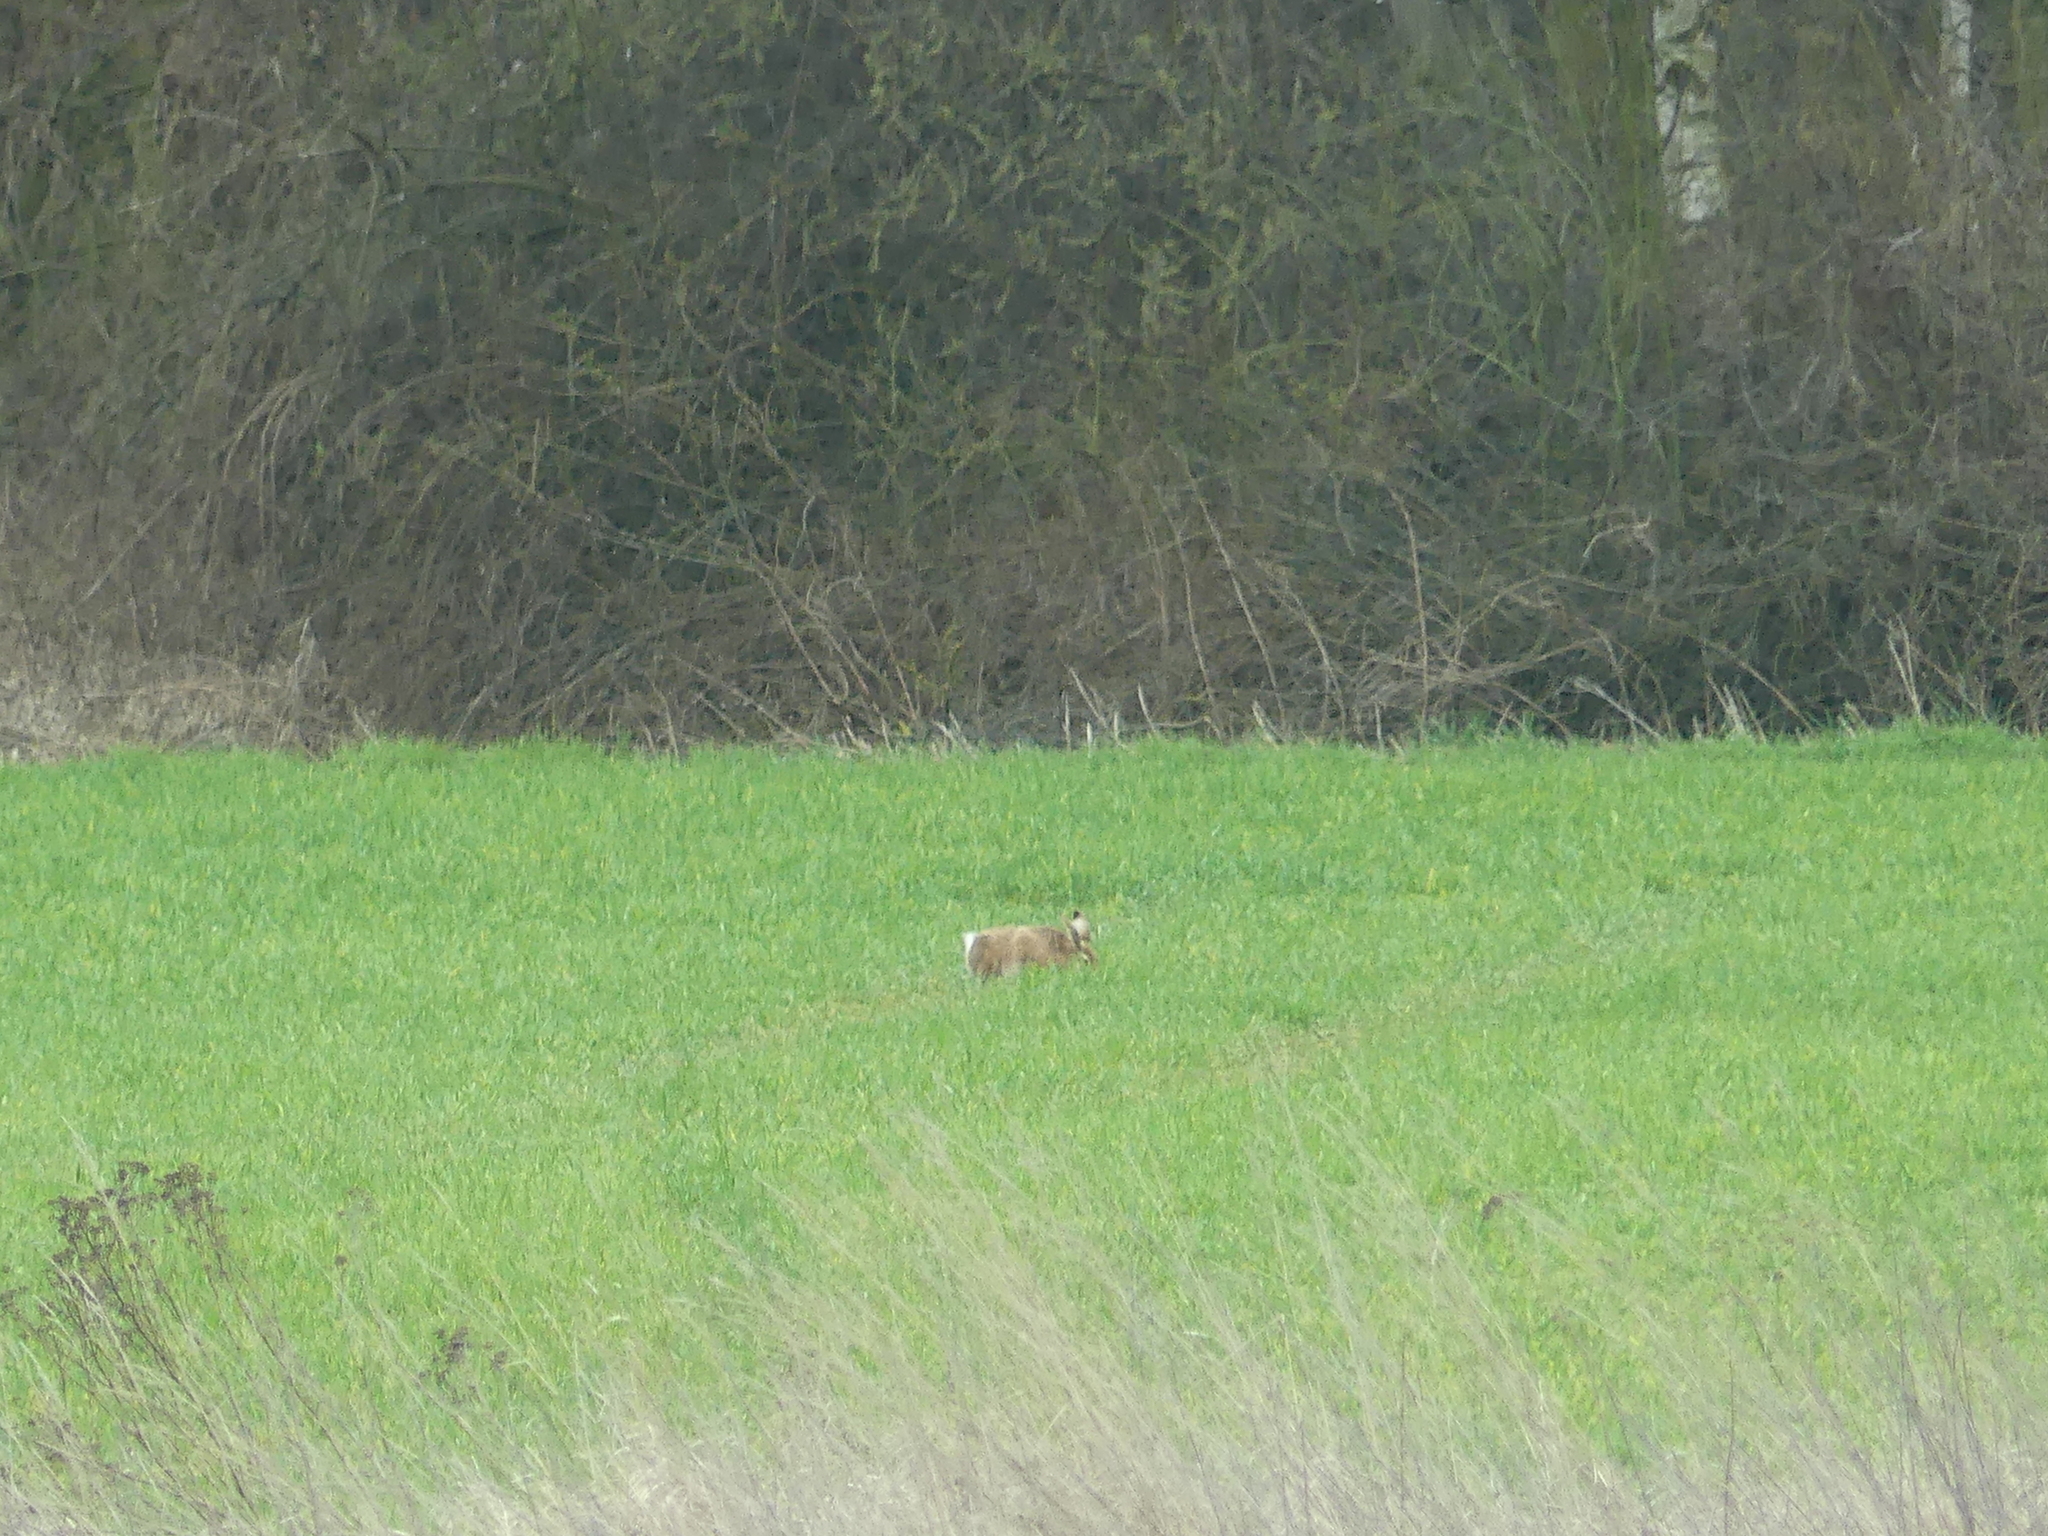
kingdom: Animalia
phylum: Chordata
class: Mammalia
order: Lagomorpha
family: Leporidae
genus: Lepus
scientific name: Lepus europaeus
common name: European hare
